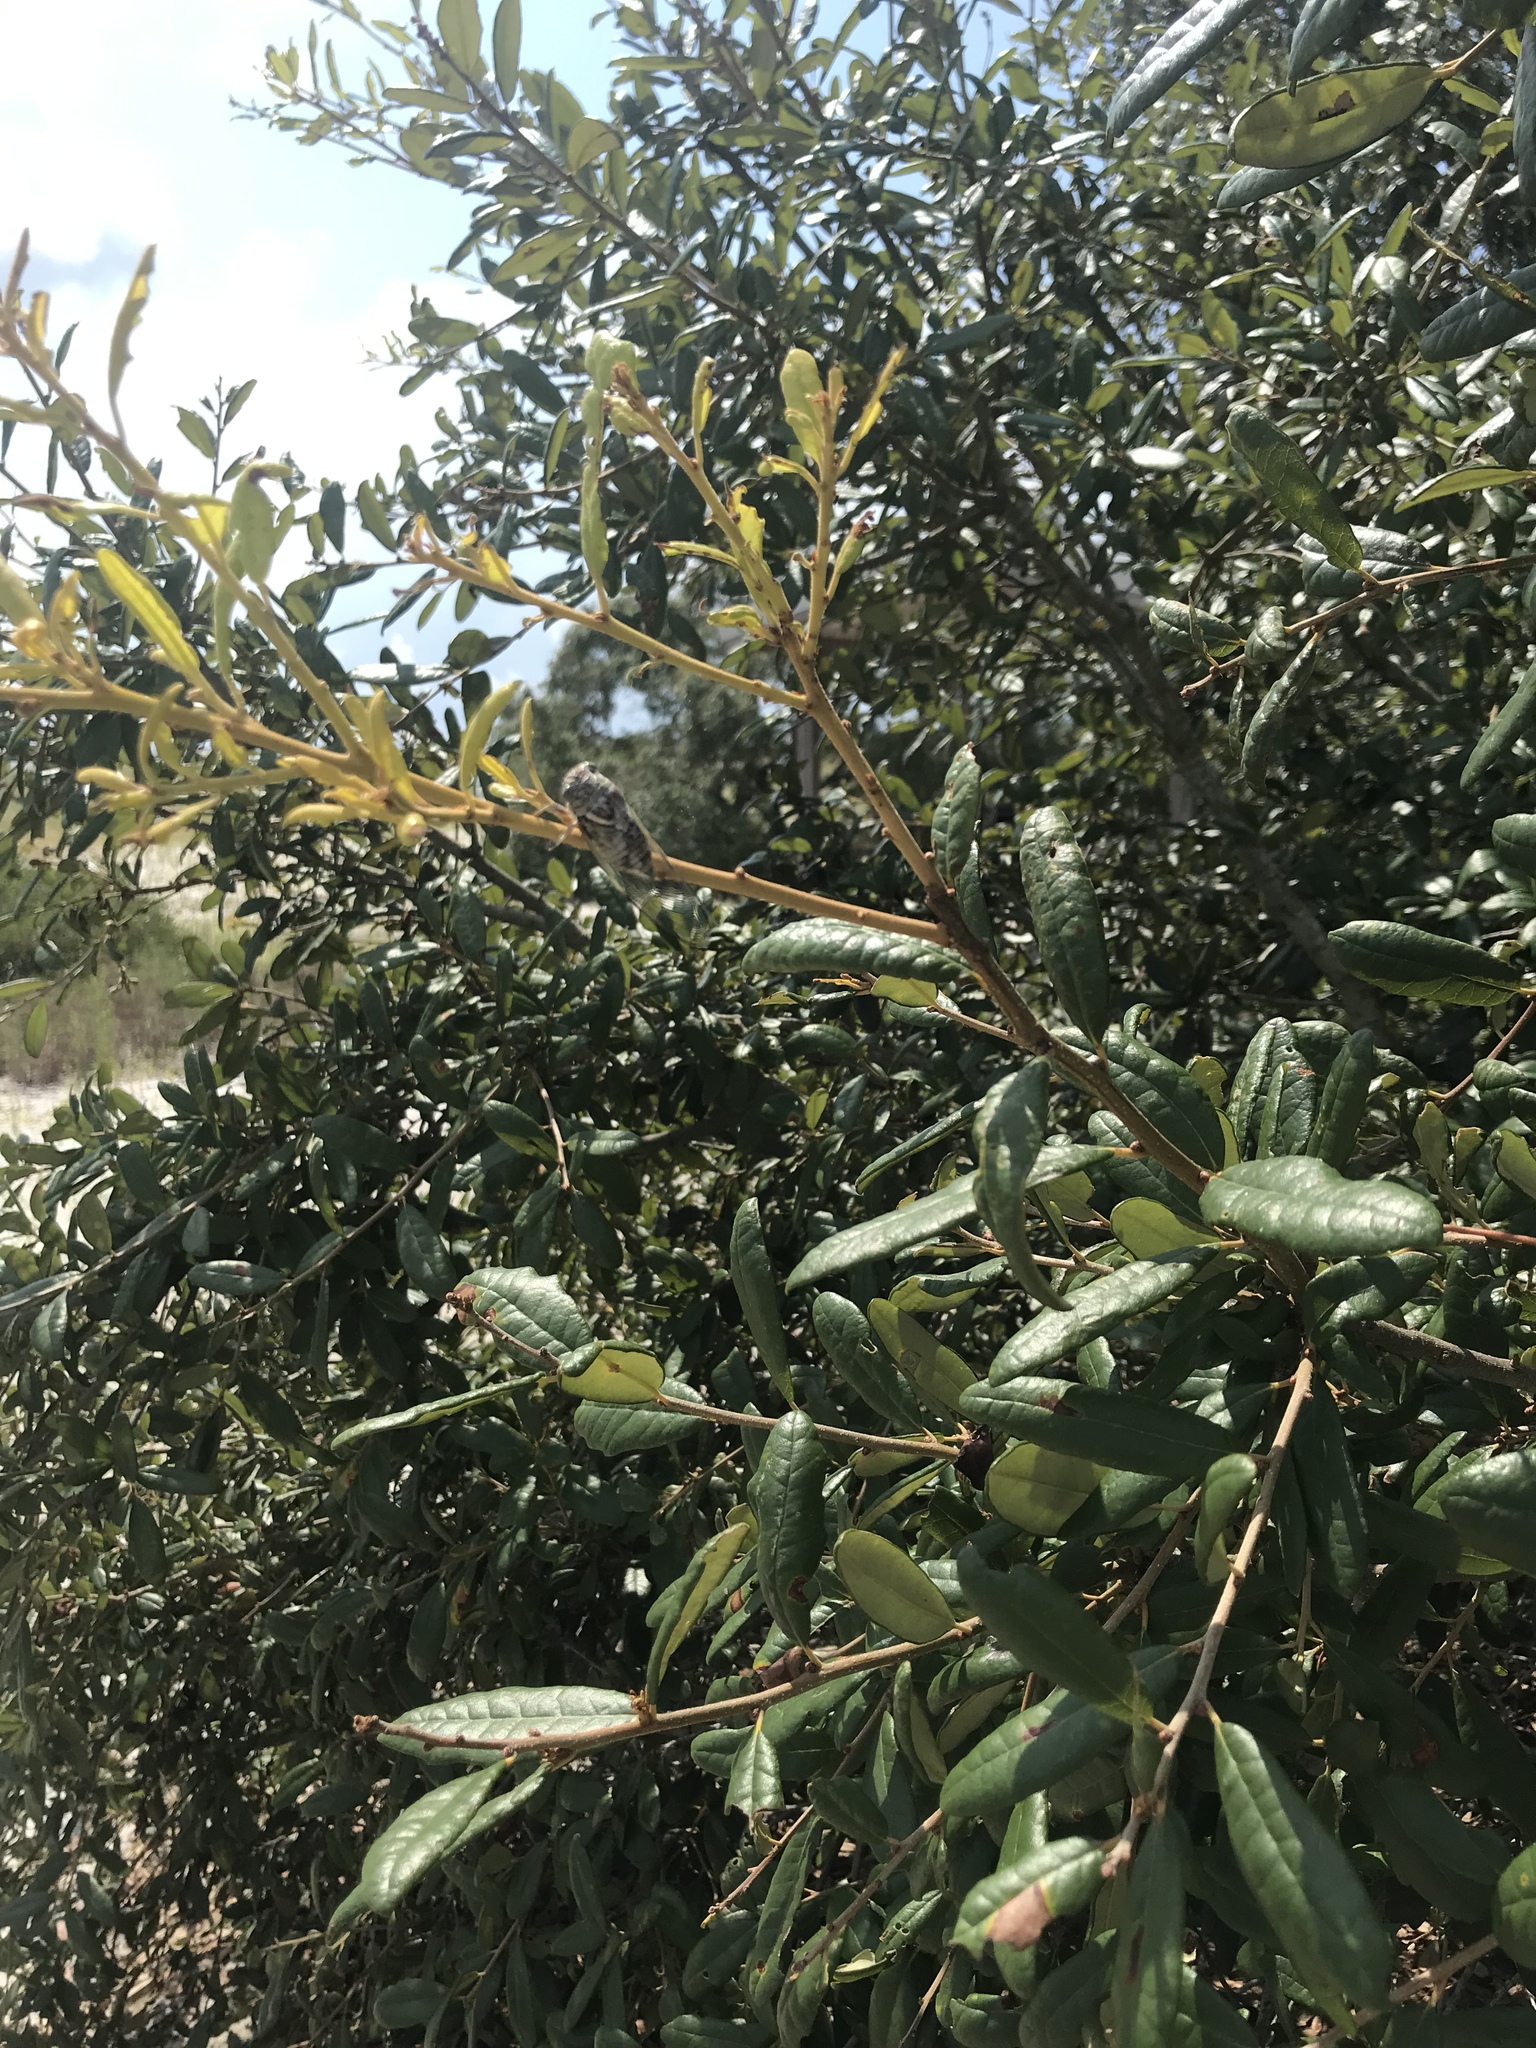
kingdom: Animalia
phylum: Arthropoda
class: Insecta
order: Hemiptera
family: Cicadidae
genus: Diceroprocta
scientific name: Diceroprocta viridifascia
